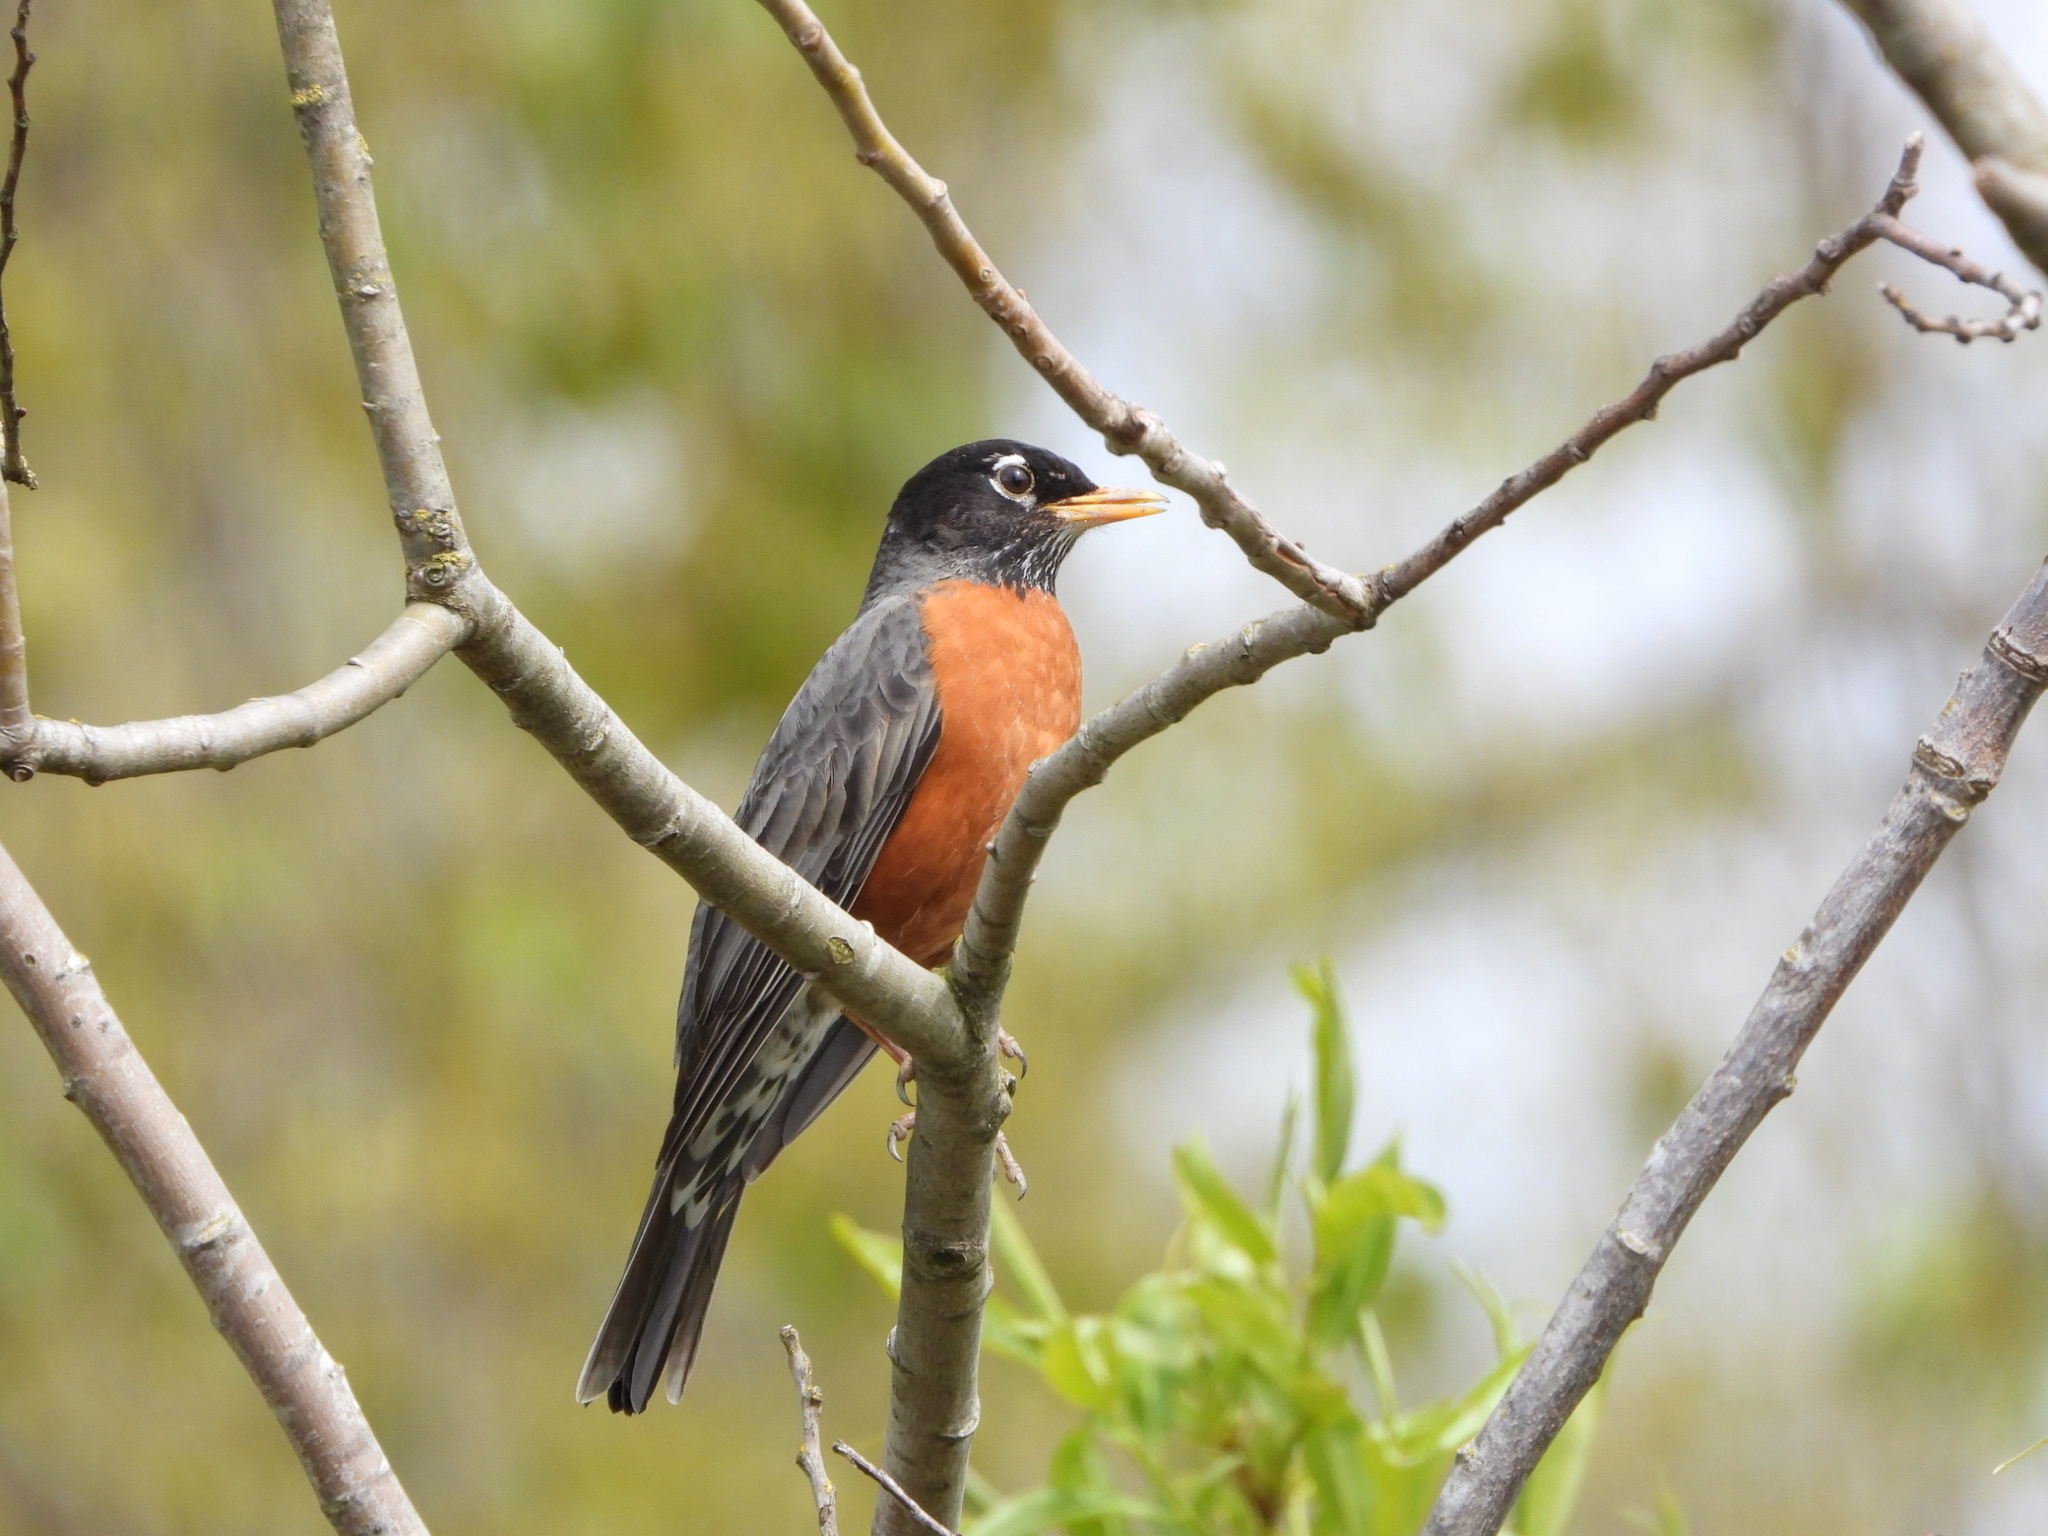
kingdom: Animalia
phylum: Chordata
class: Aves
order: Passeriformes
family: Turdidae
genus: Turdus
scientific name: Turdus migratorius
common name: American robin
